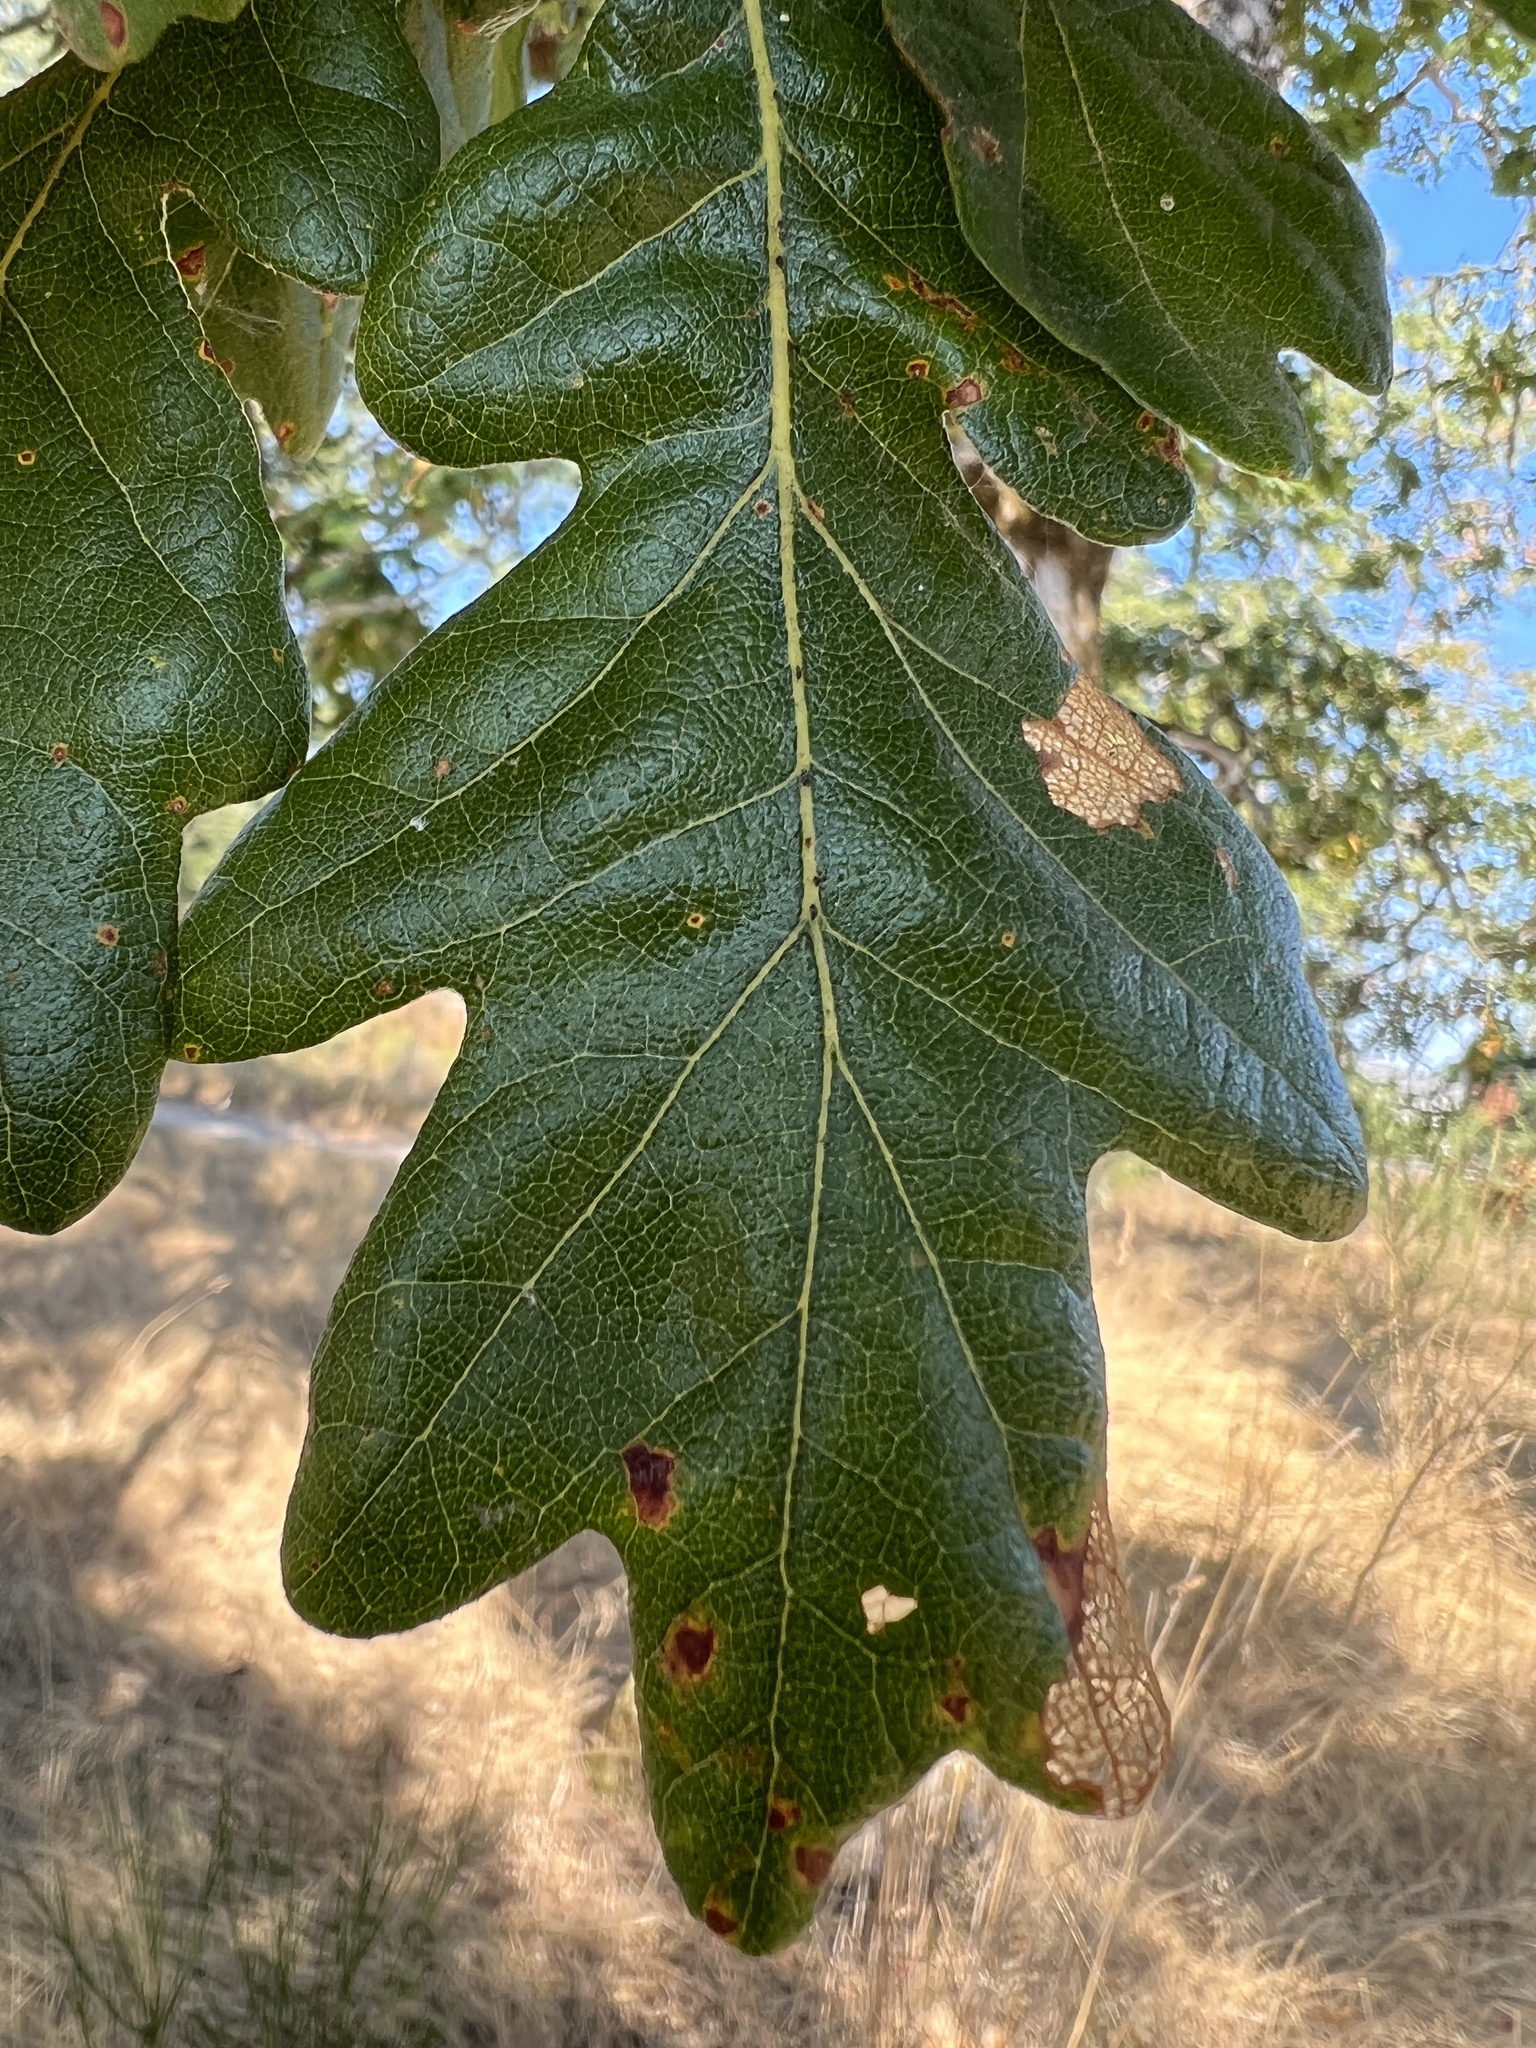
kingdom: Plantae
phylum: Tracheophyta
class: Magnoliopsida
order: Fagales
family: Fagaceae
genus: Quercus
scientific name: Quercus garryana
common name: Garry oak
